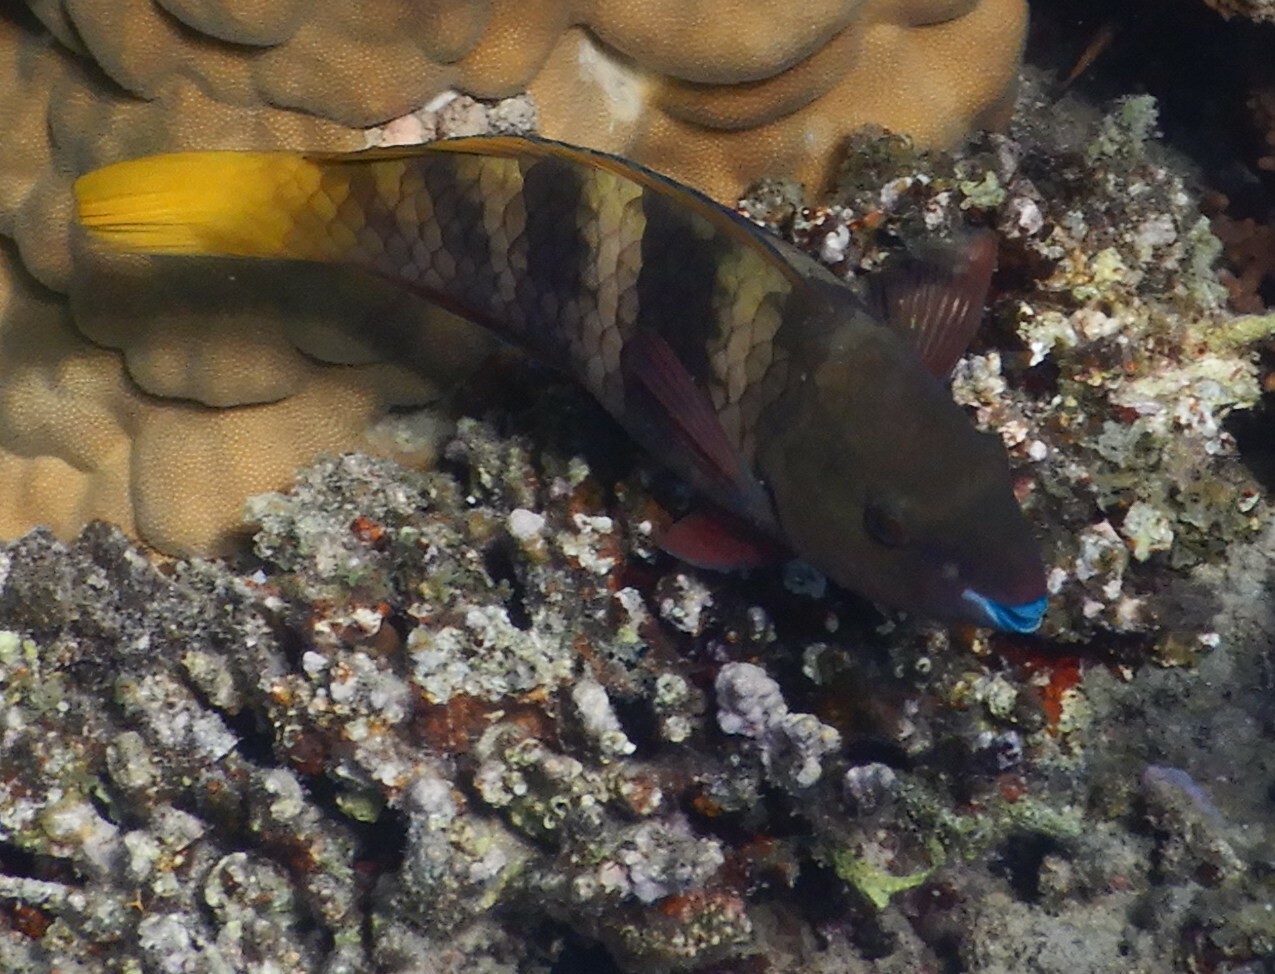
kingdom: Animalia
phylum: Chordata
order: Perciformes
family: Scaridae
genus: Scarus
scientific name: Scarus ferrugineus
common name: Rusty parrotfish
